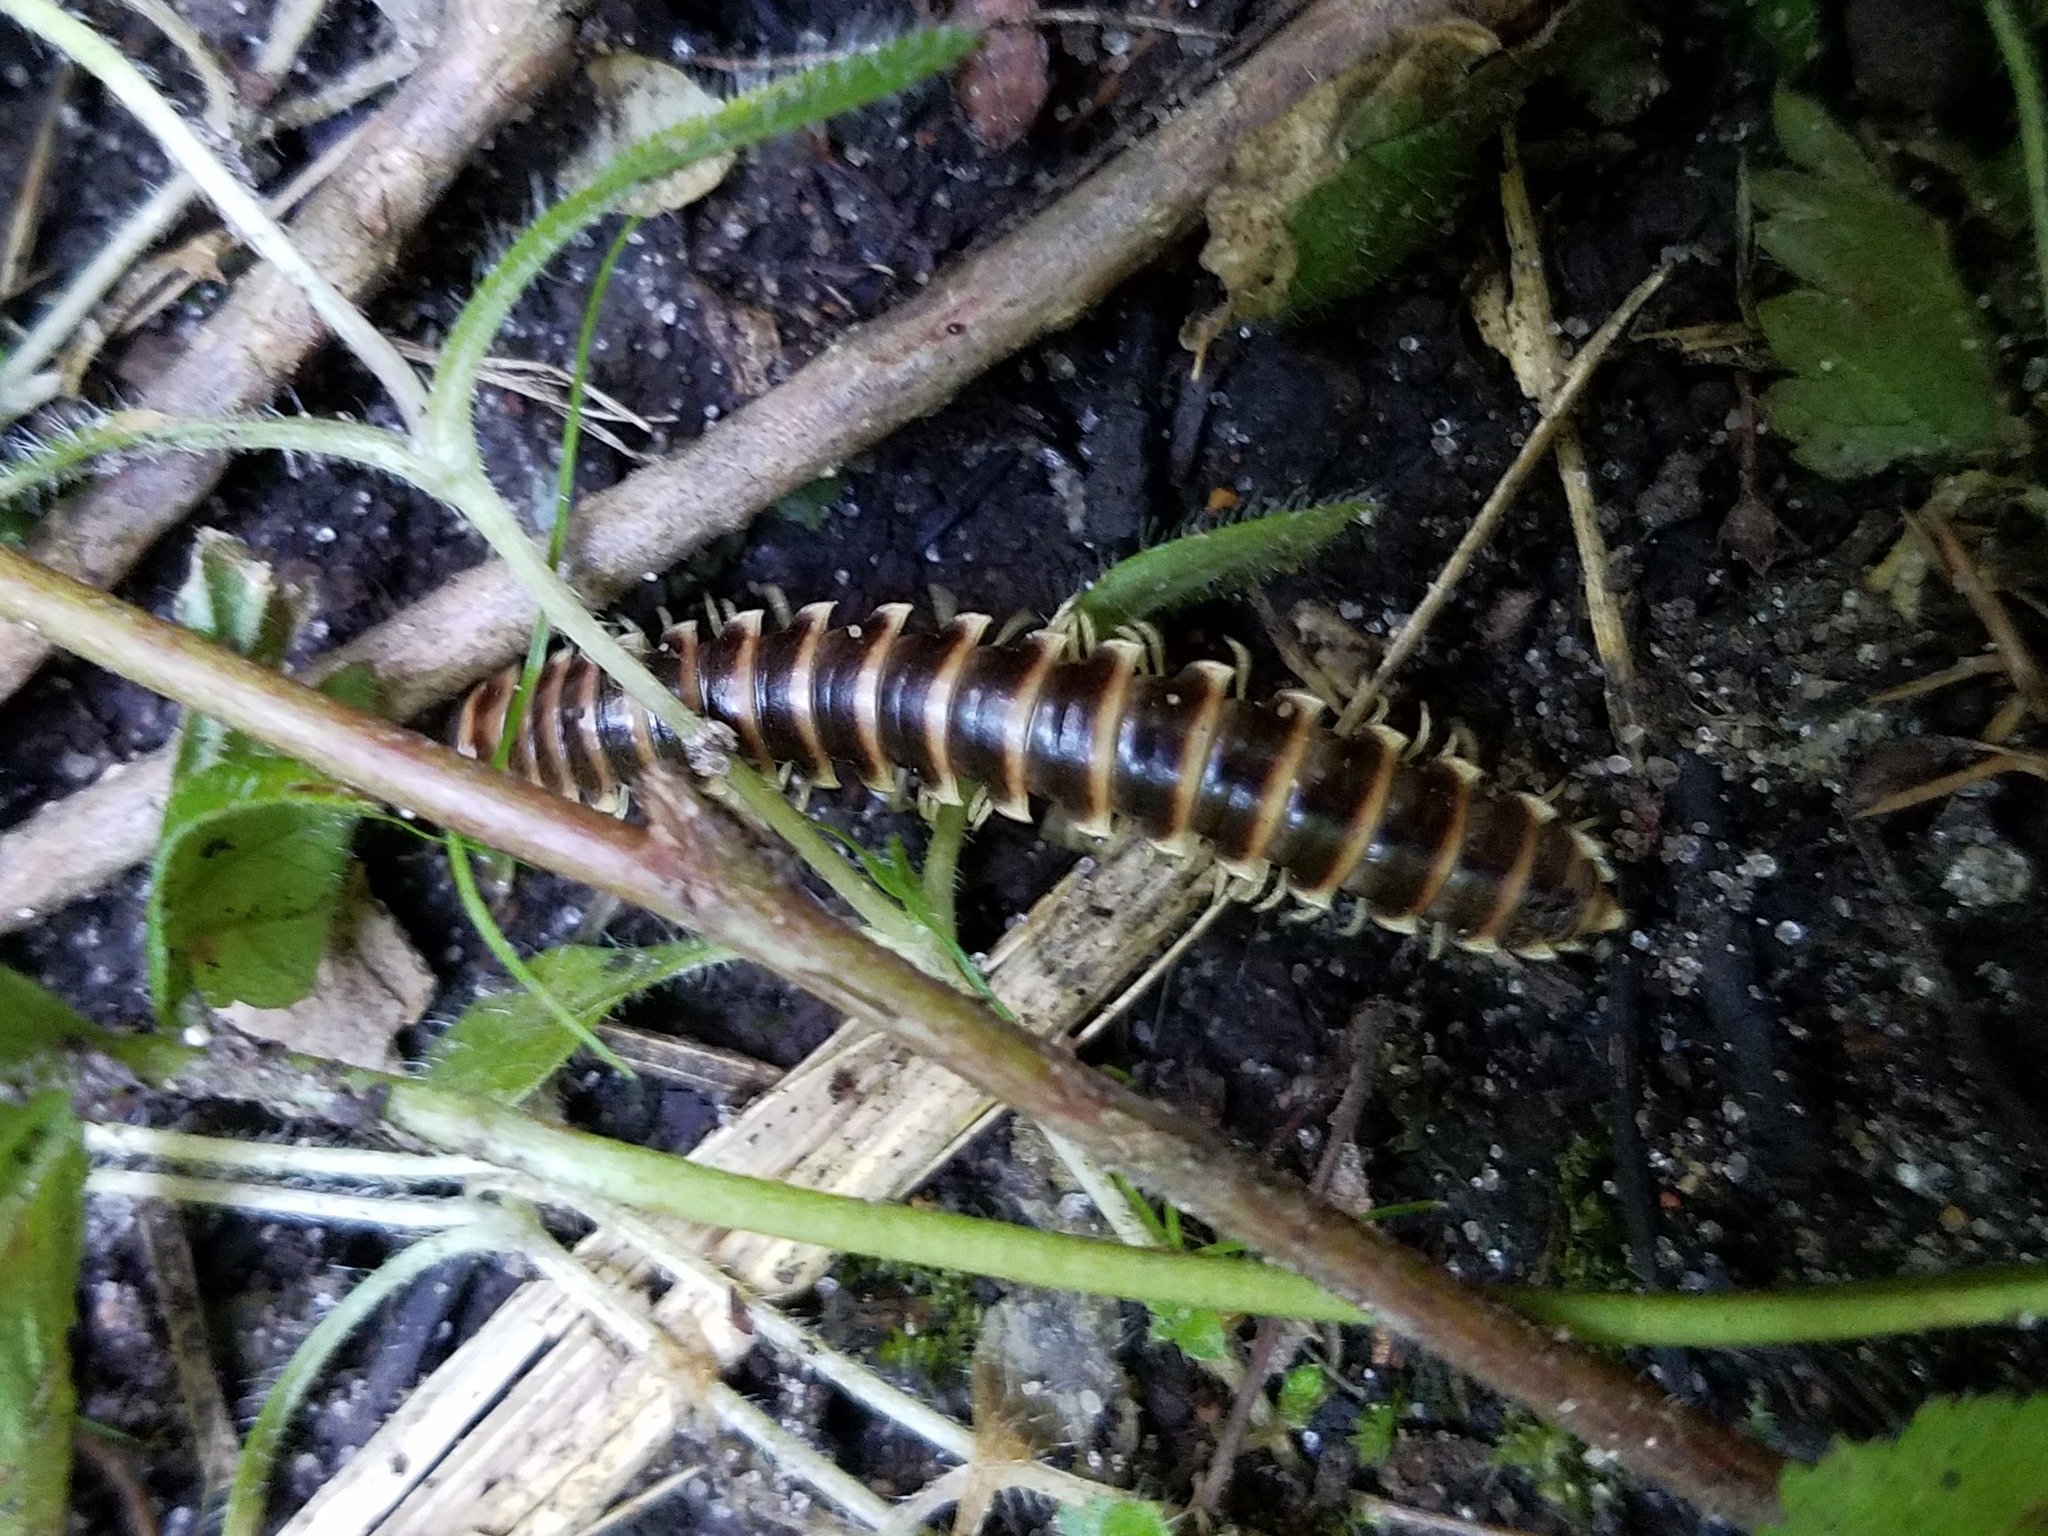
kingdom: Animalia
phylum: Arthropoda
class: Diplopoda
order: Polydesmida
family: Xystodesmidae
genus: Pleuroloma
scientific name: Pleuroloma flavipes
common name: Yellow-legged pleuroloma
